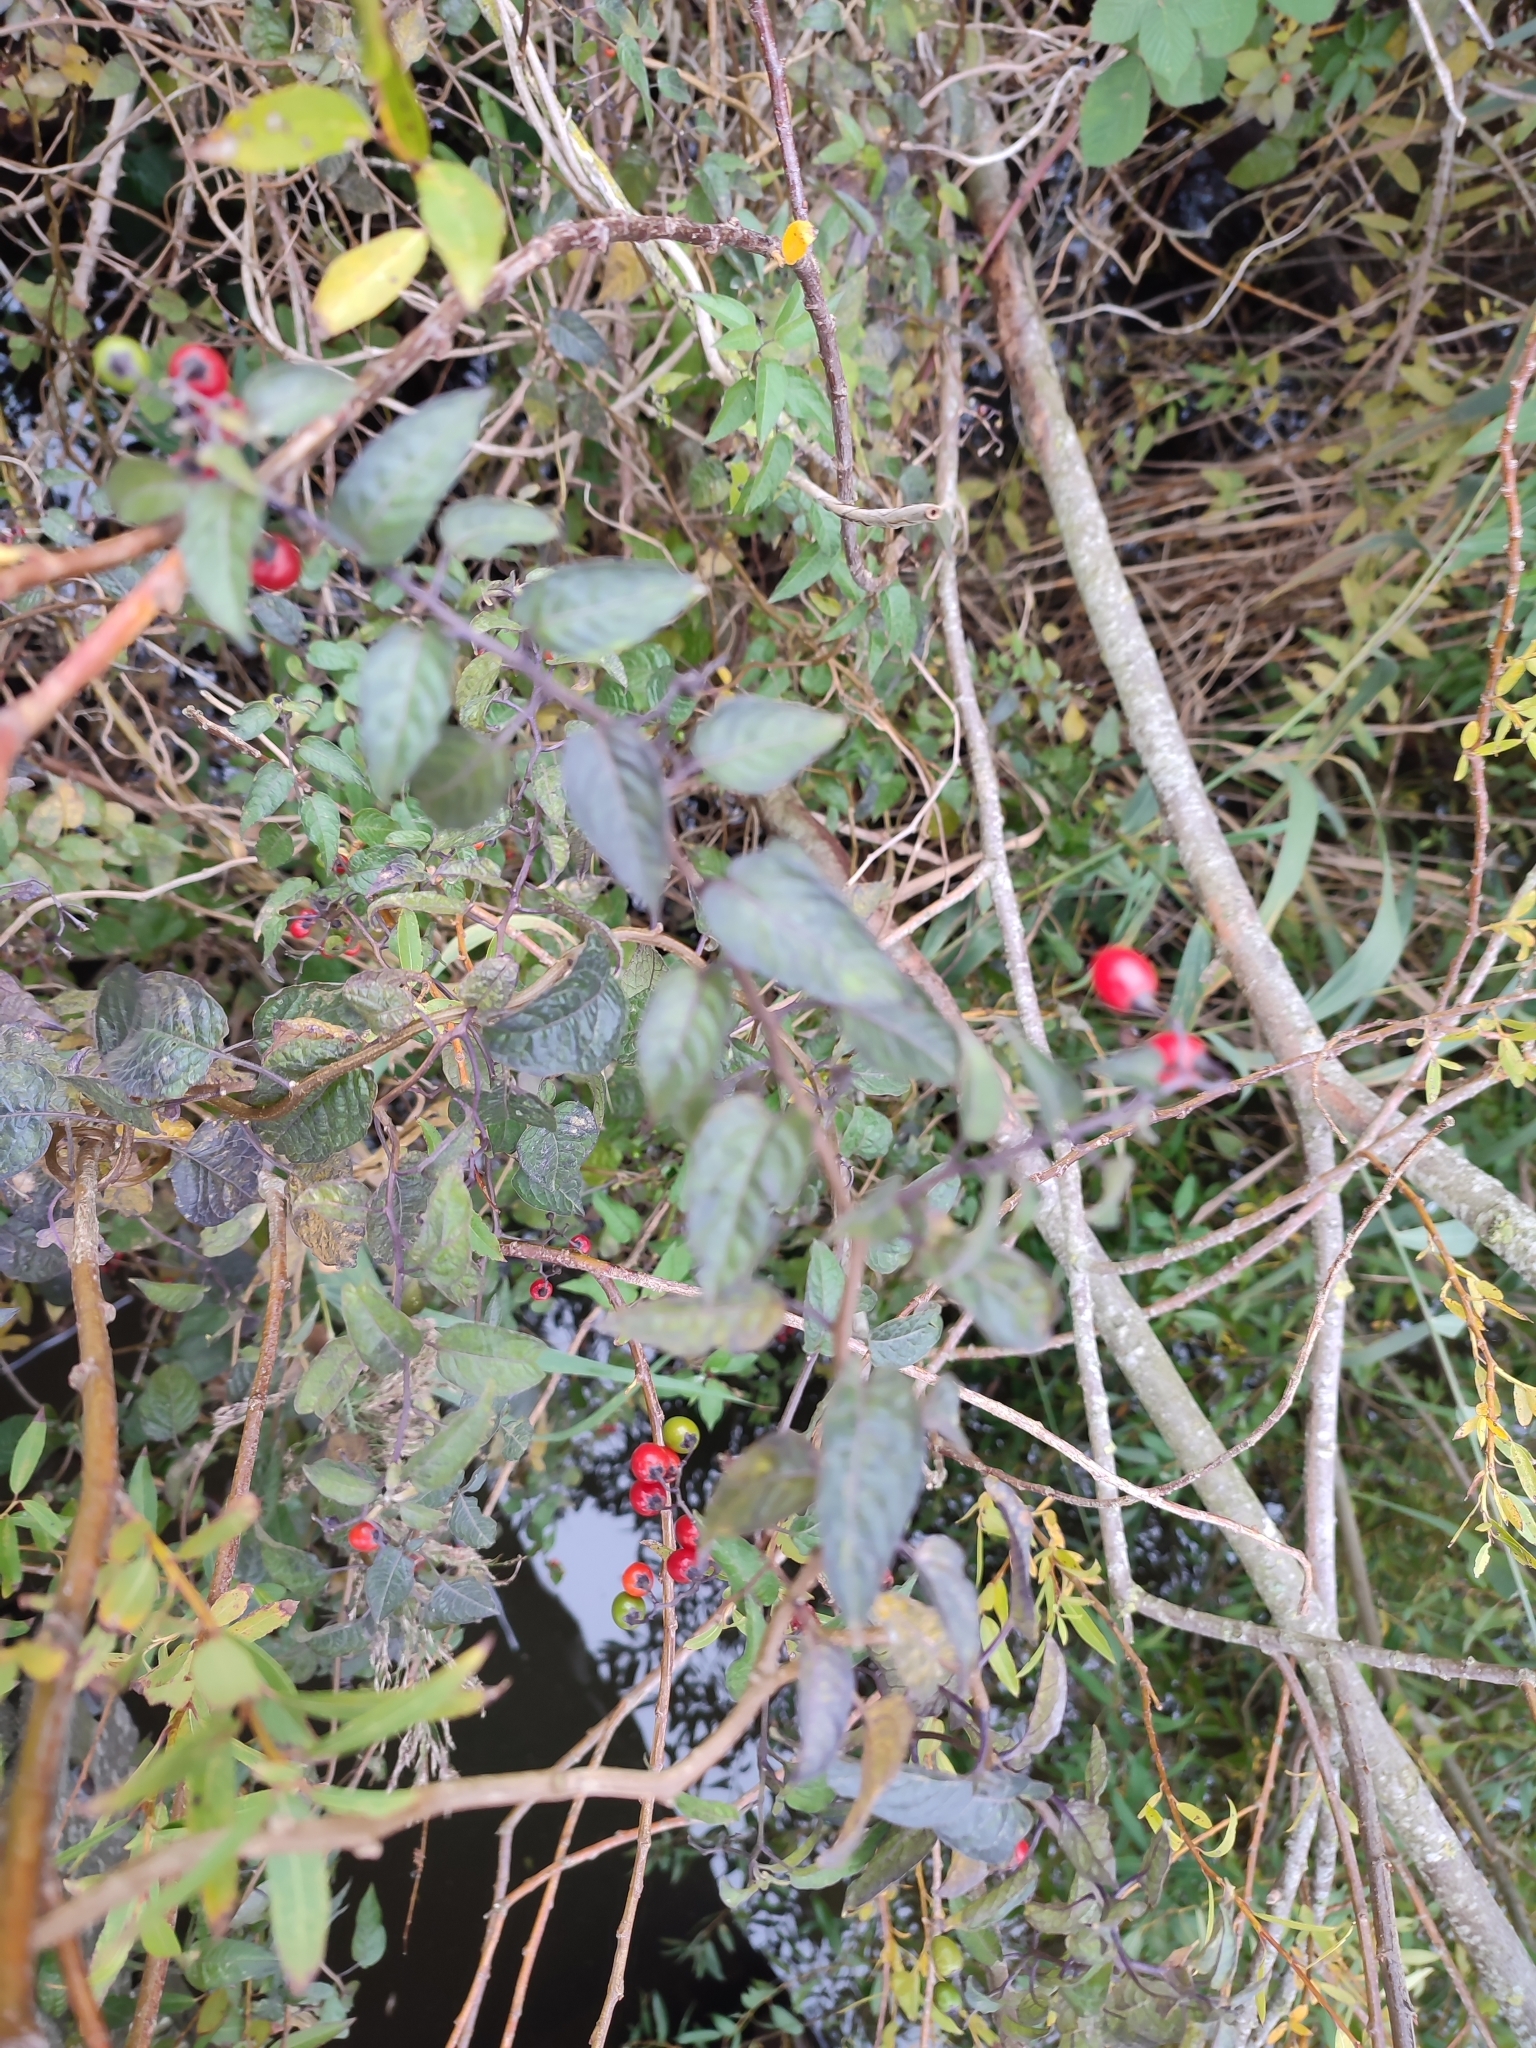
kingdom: Plantae
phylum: Tracheophyta
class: Magnoliopsida
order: Solanales
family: Solanaceae
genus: Solanum
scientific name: Solanum dulcamara
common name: Climbing nightshade
